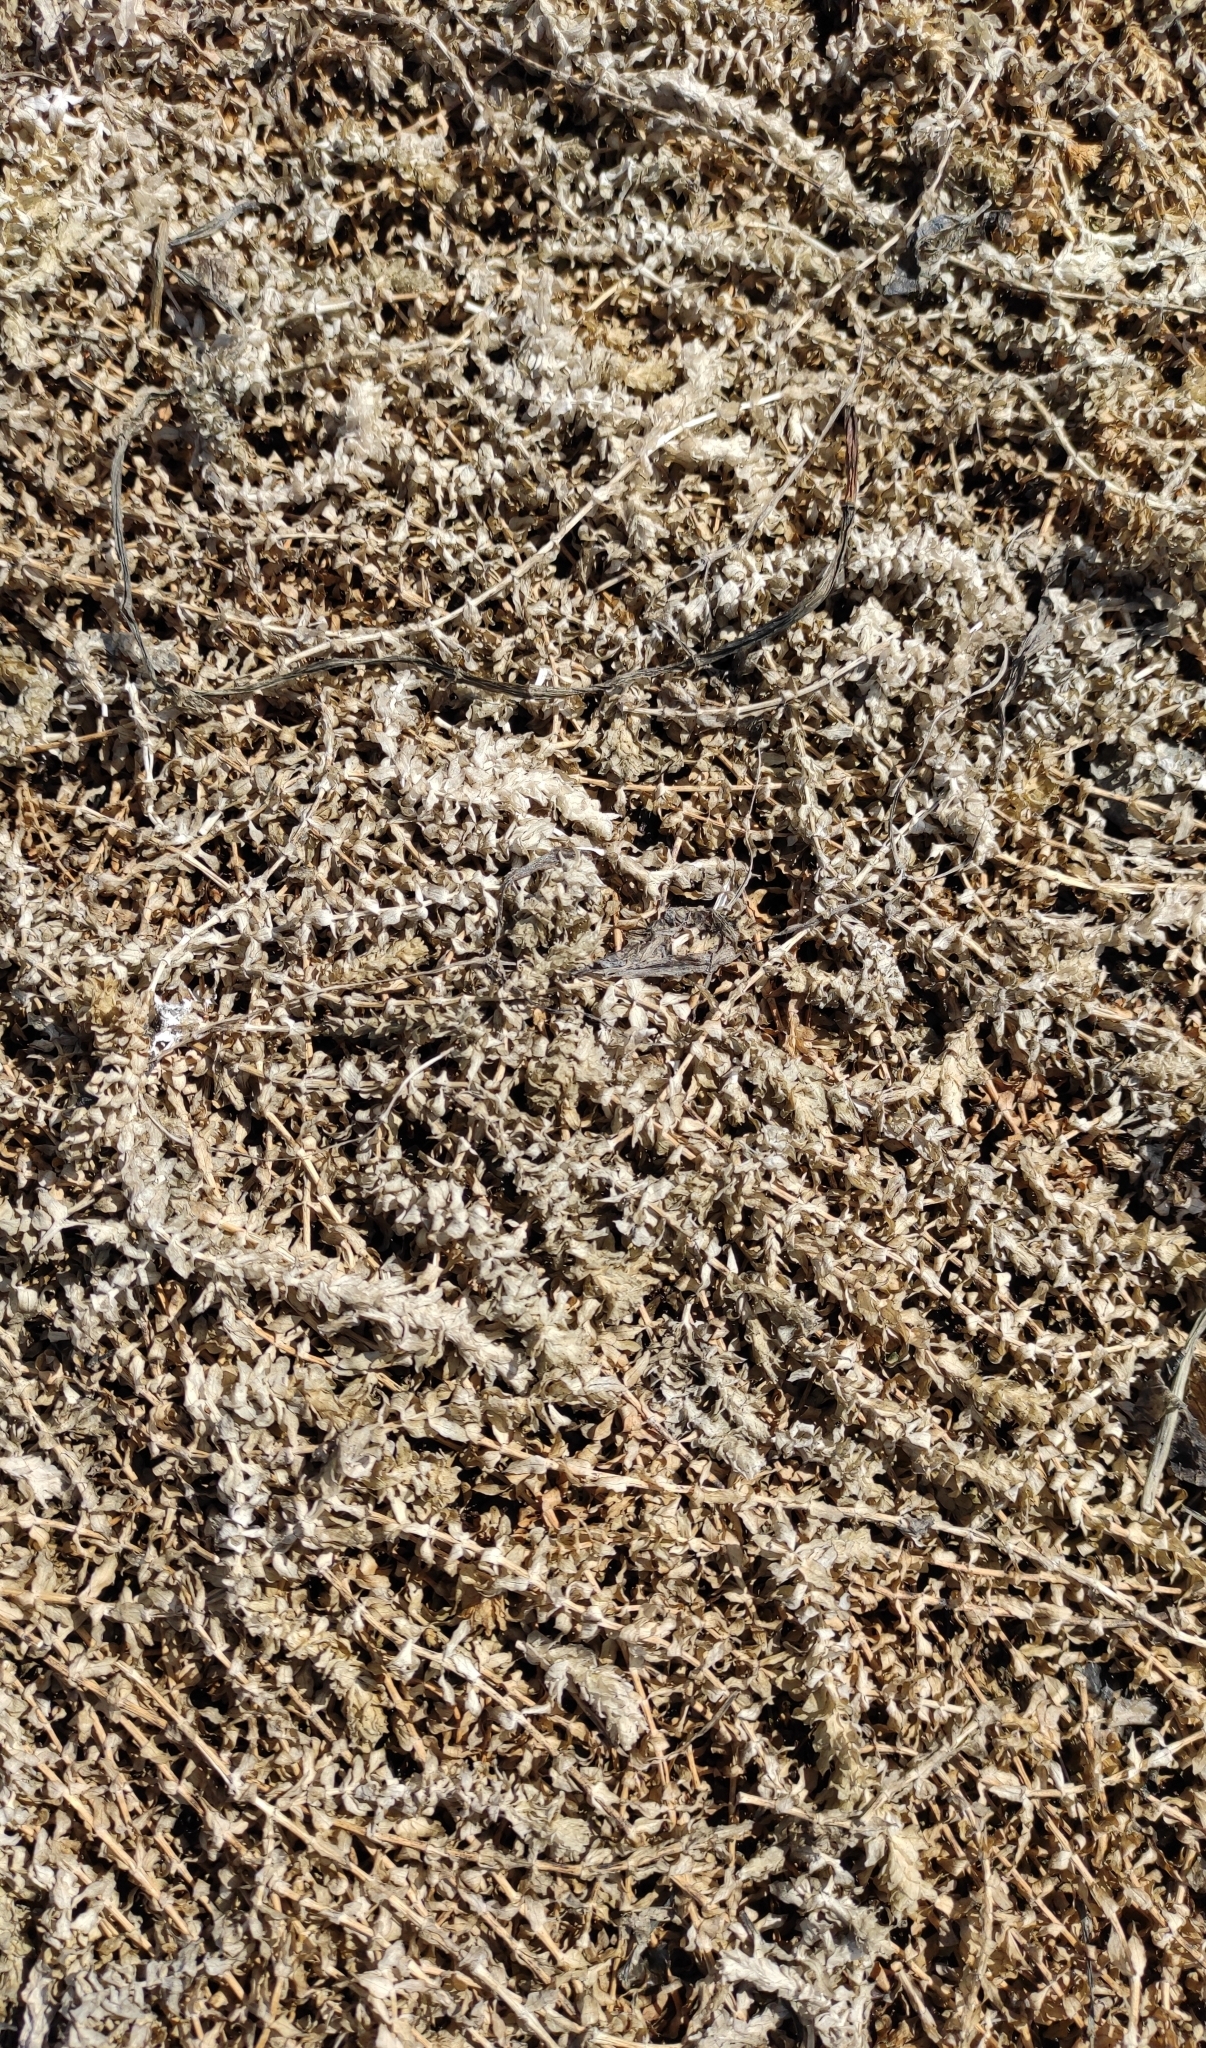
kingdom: Plantae
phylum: Tracheophyta
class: Liliopsida
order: Alismatales
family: Hydrocharitaceae
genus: Elodea
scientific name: Elodea canadensis
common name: Canadian waterweed
